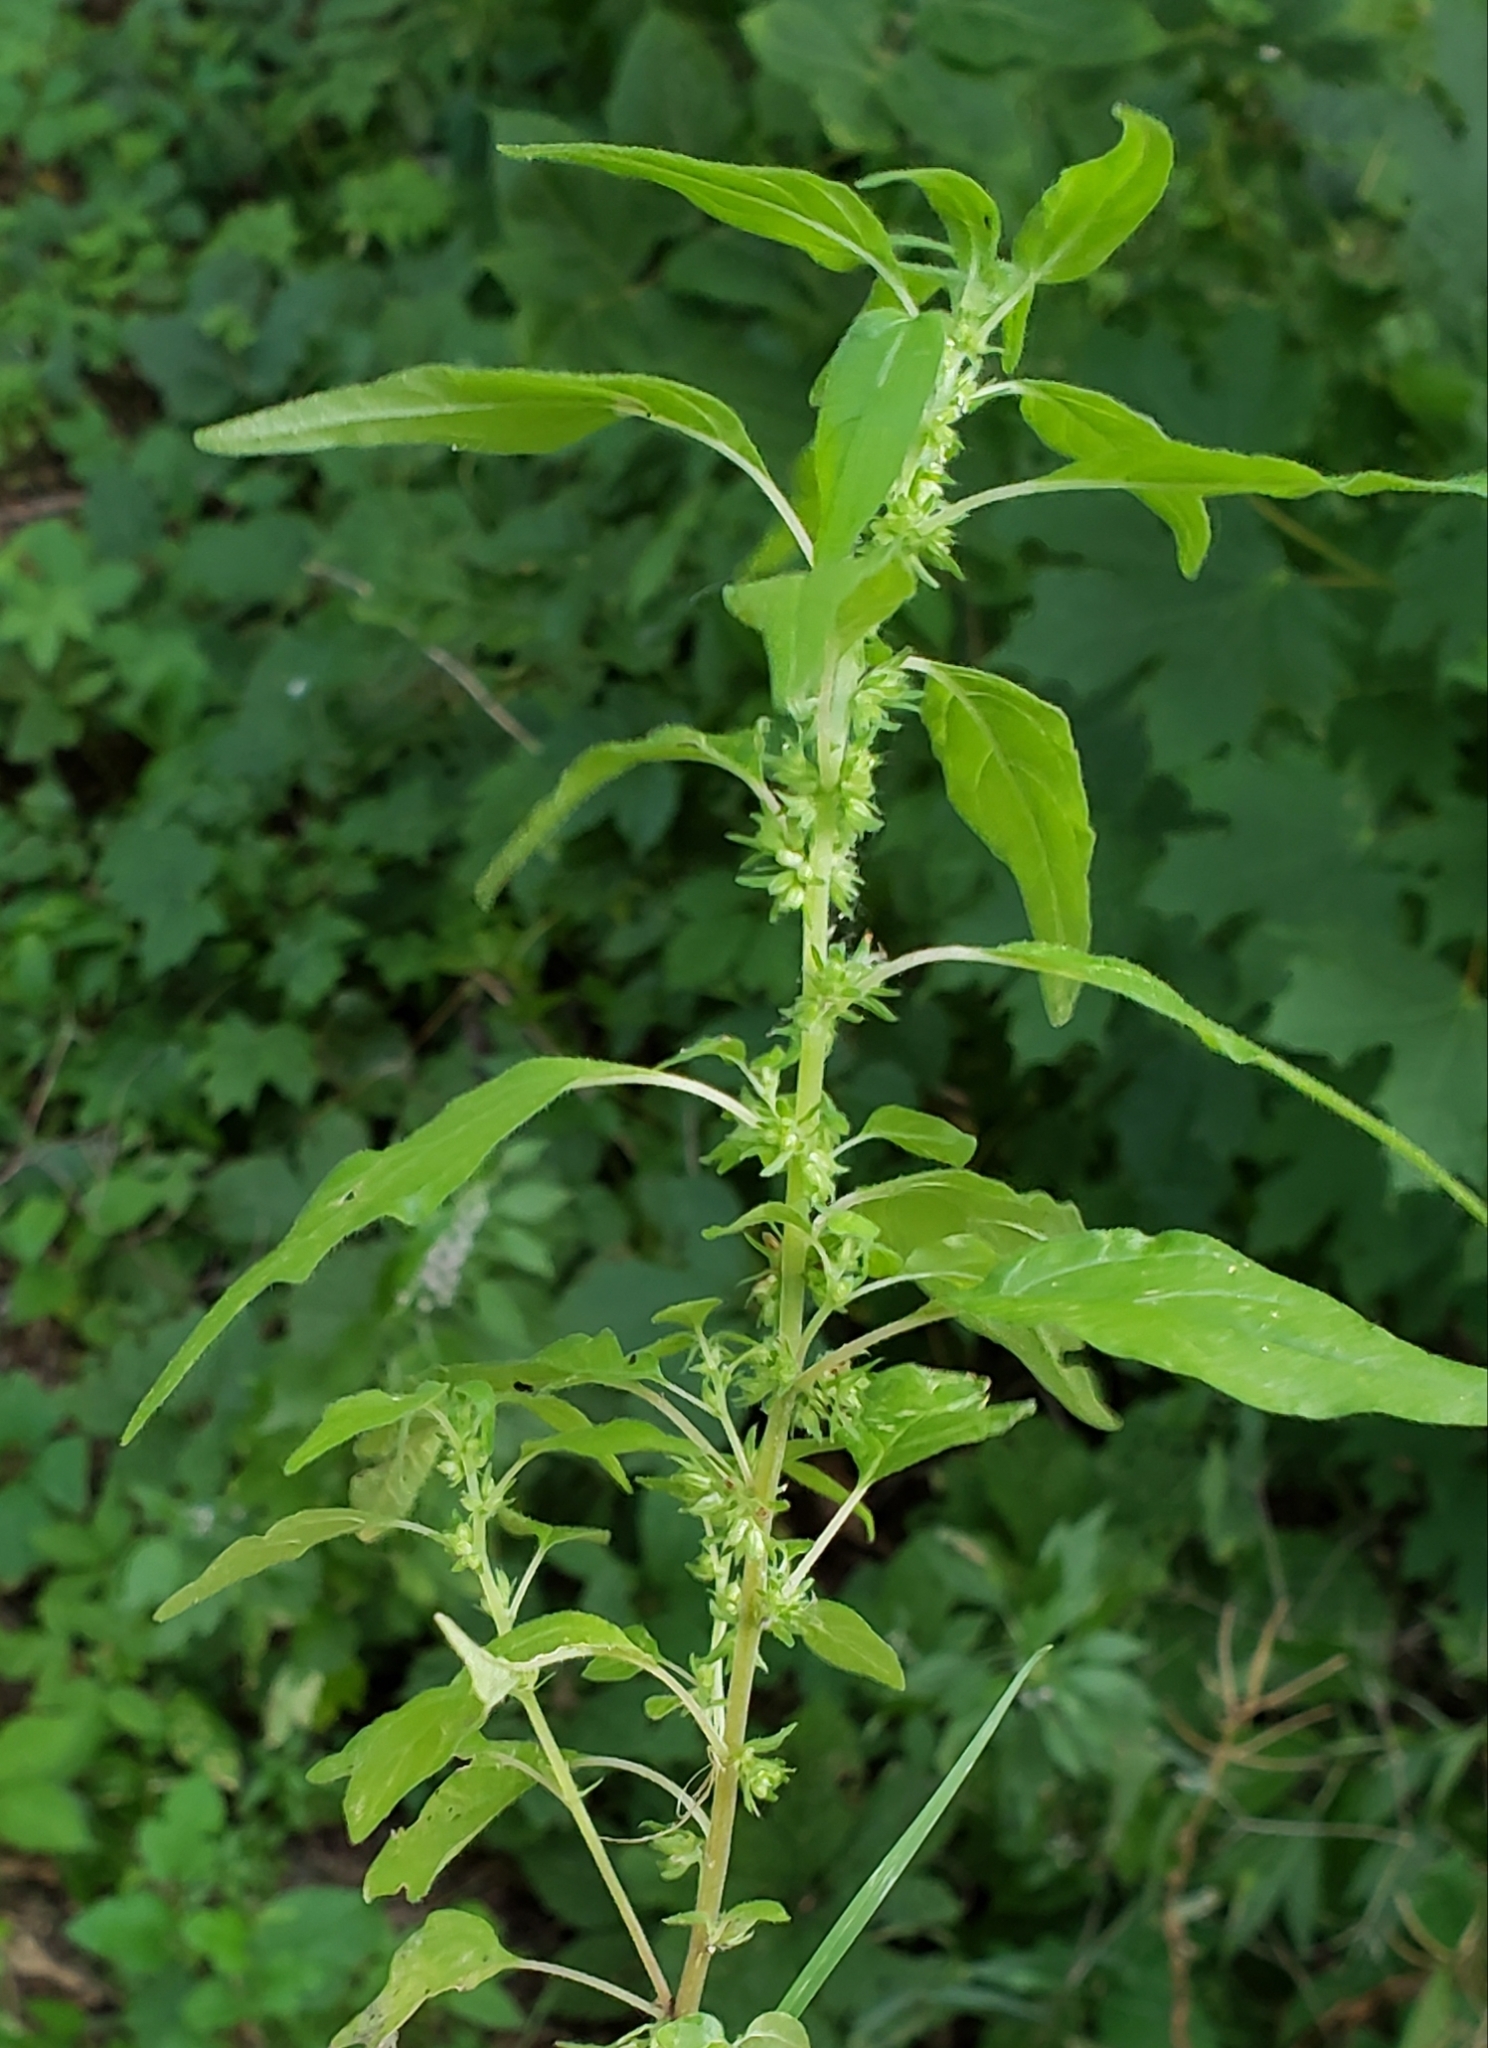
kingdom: Plantae
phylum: Tracheophyta
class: Magnoliopsida
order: Rosales
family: Urticaceae
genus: Parietaria
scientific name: Parietaria pensylvanica
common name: Pennsylvania pellitory
